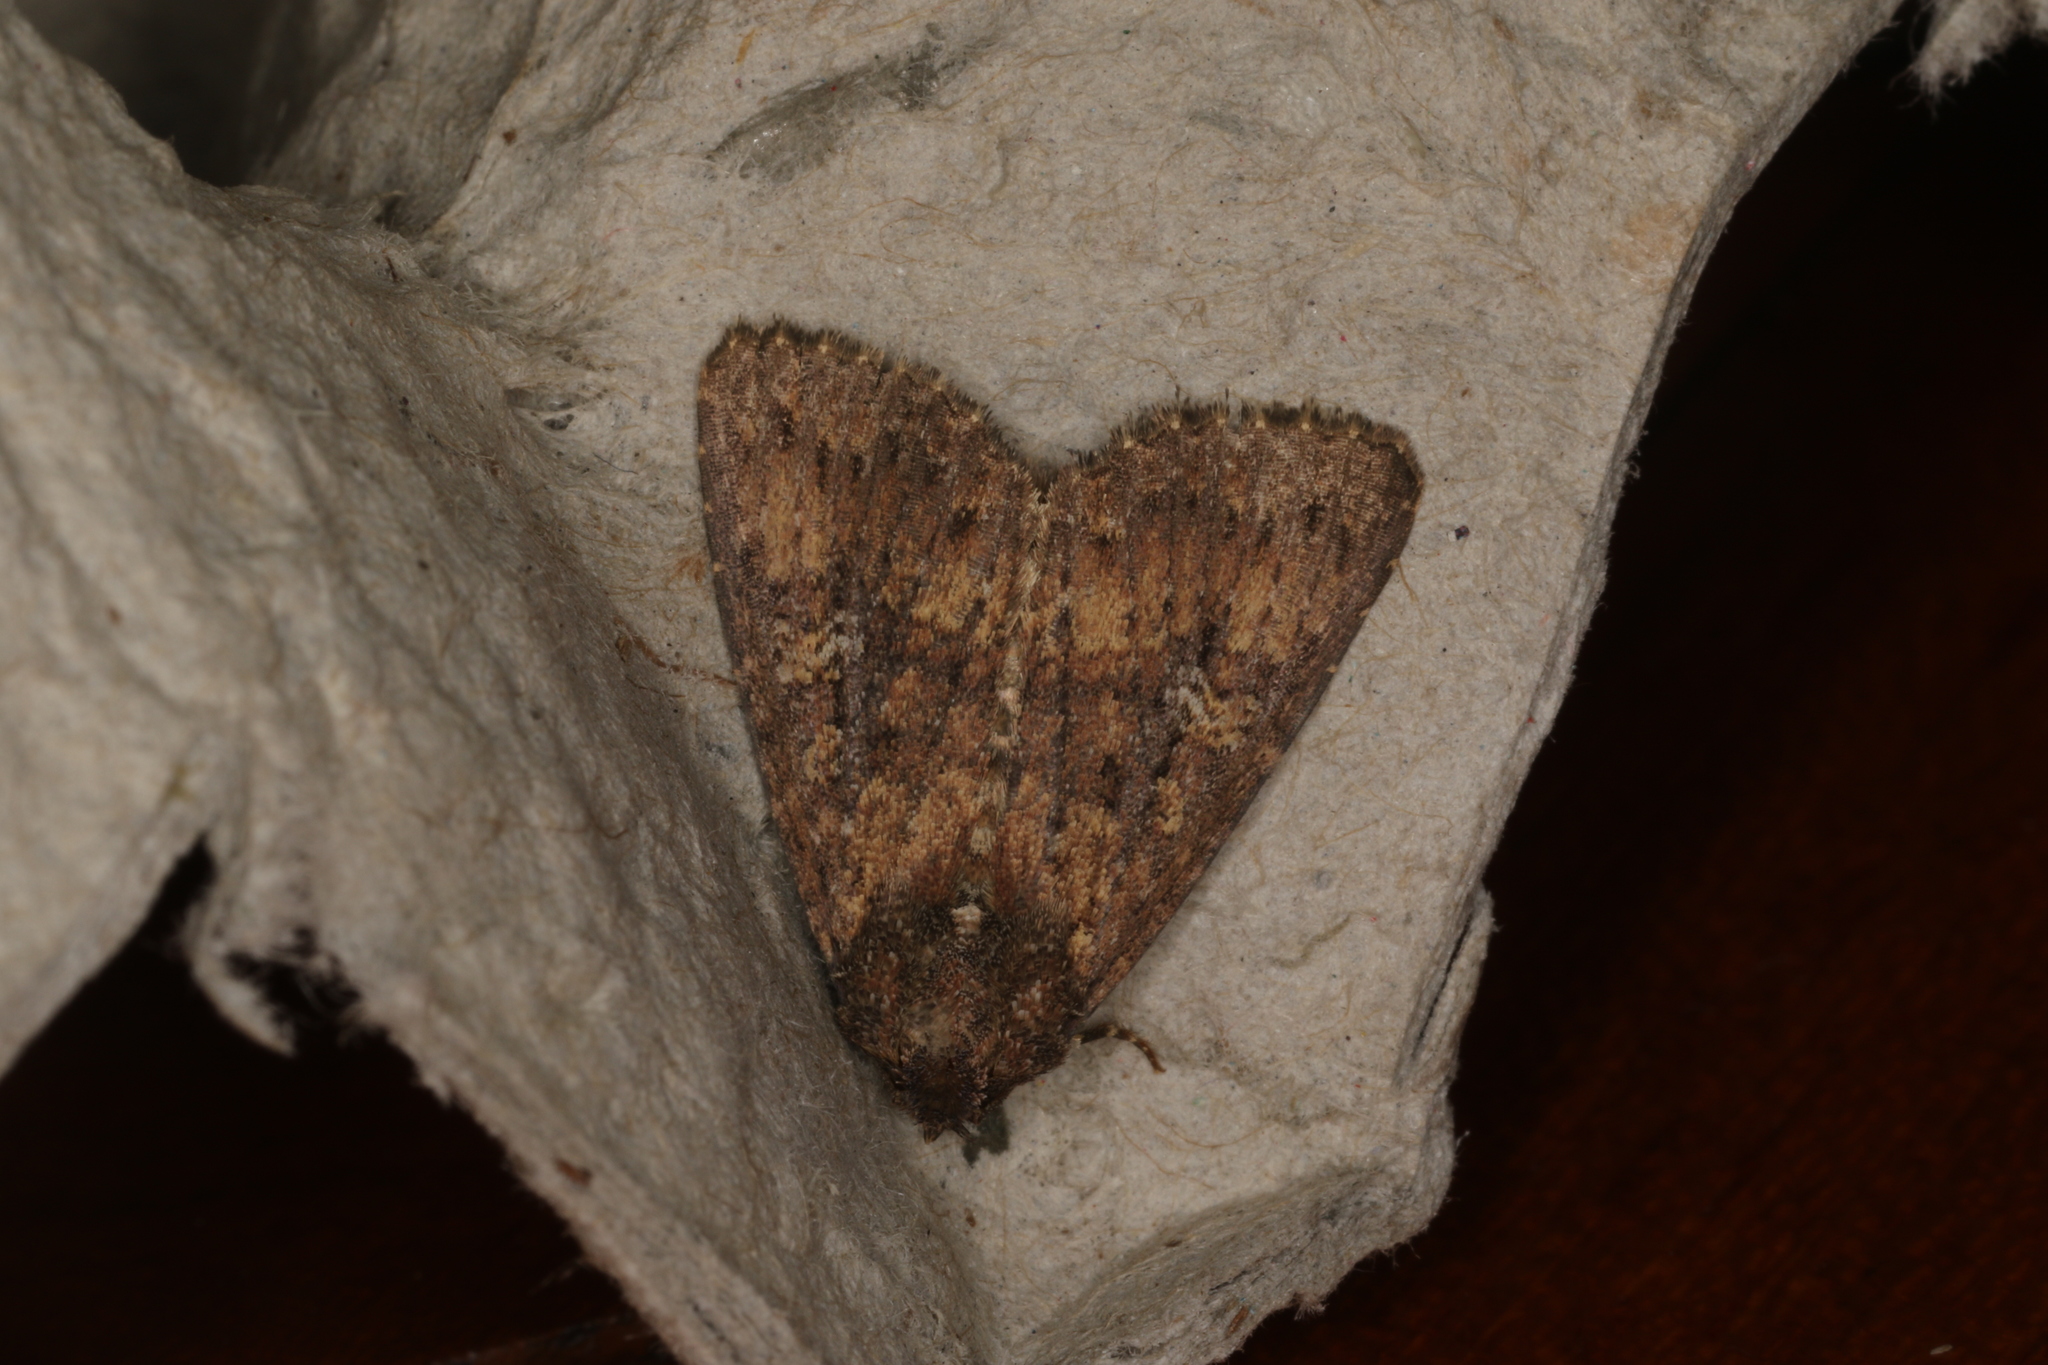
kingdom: Animalia
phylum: Arthropoda
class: Insecta
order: Lepidoptera
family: Noctuidae
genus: Condica
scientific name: Condica illecta
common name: Cutworm
